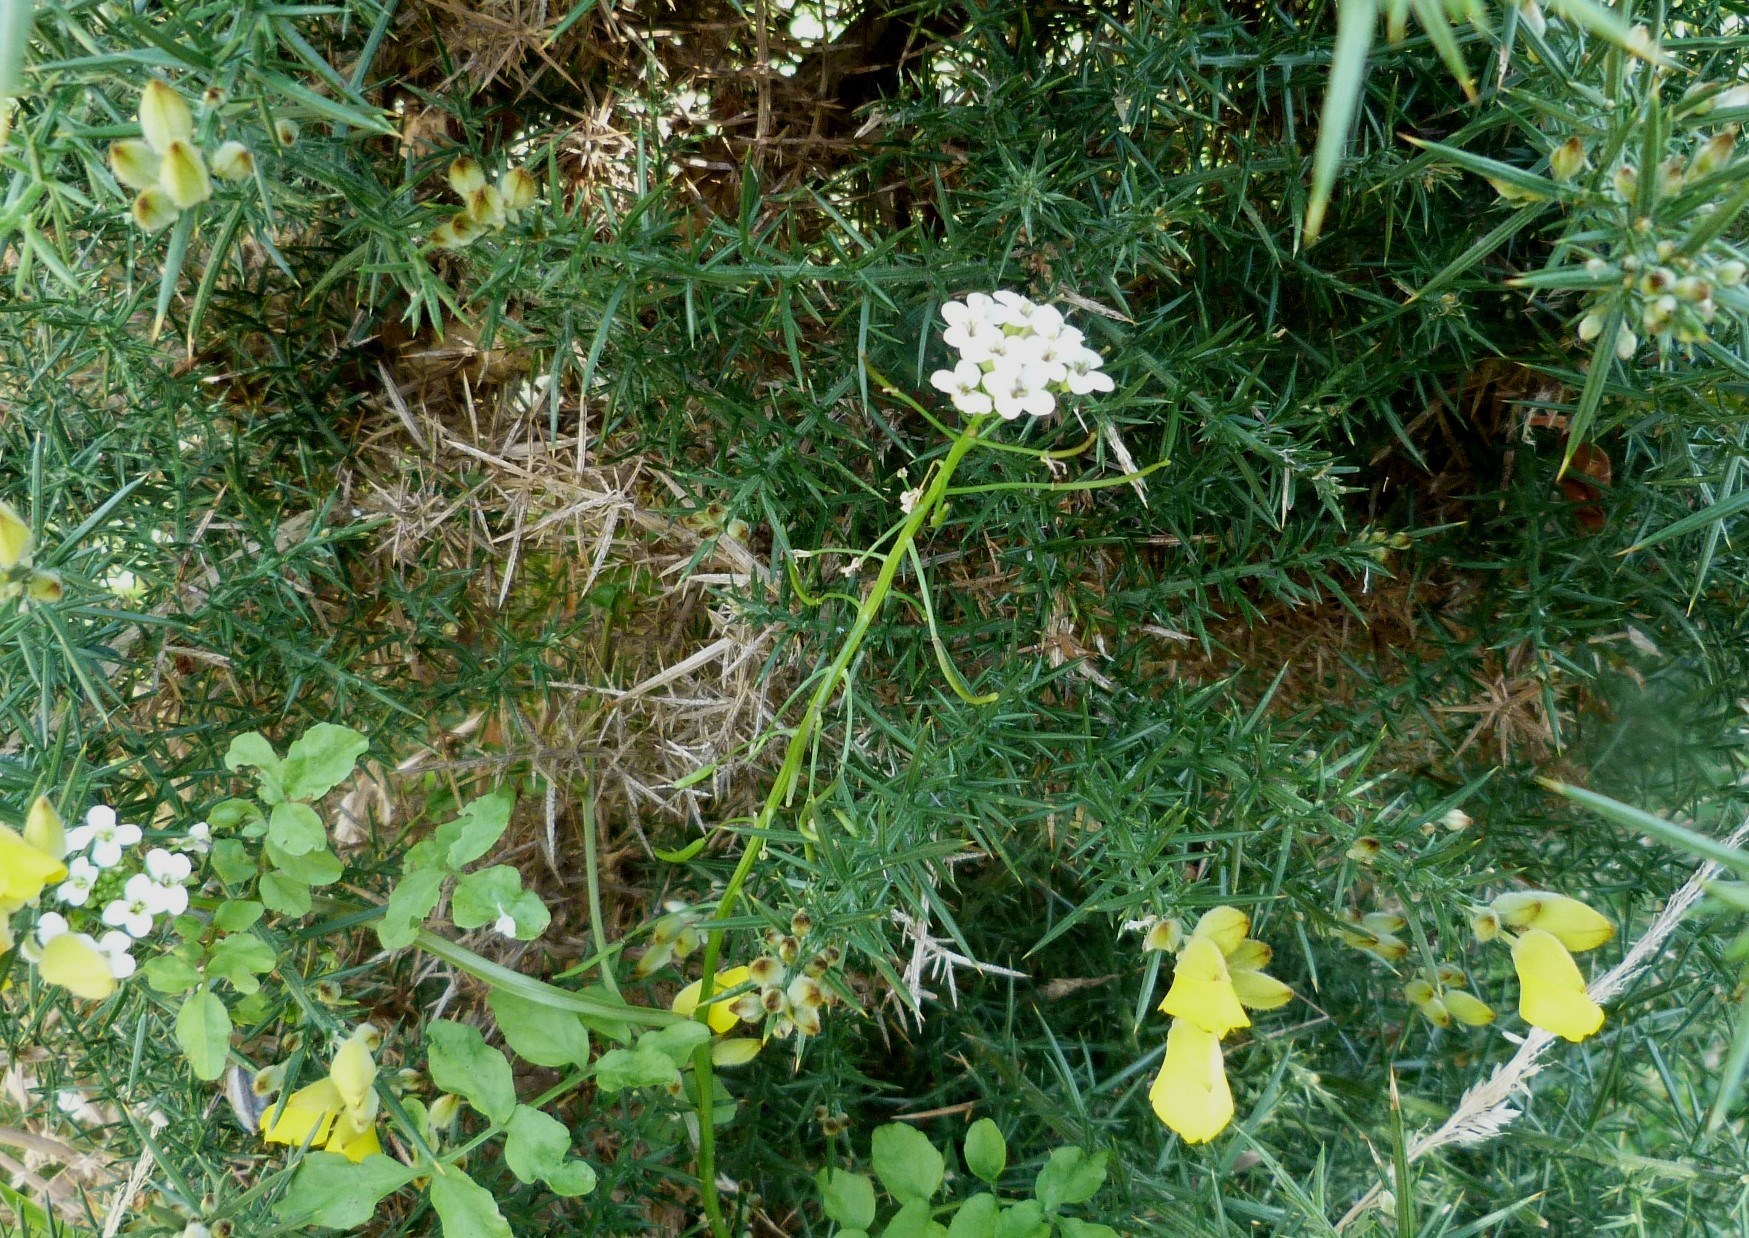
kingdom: Plantae
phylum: Tracheophyta
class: Magnoliopsida
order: Brassicales
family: Brassicaceae
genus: Nasturtium
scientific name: Nasturtium microphyllum
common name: Onerow yellowcress
